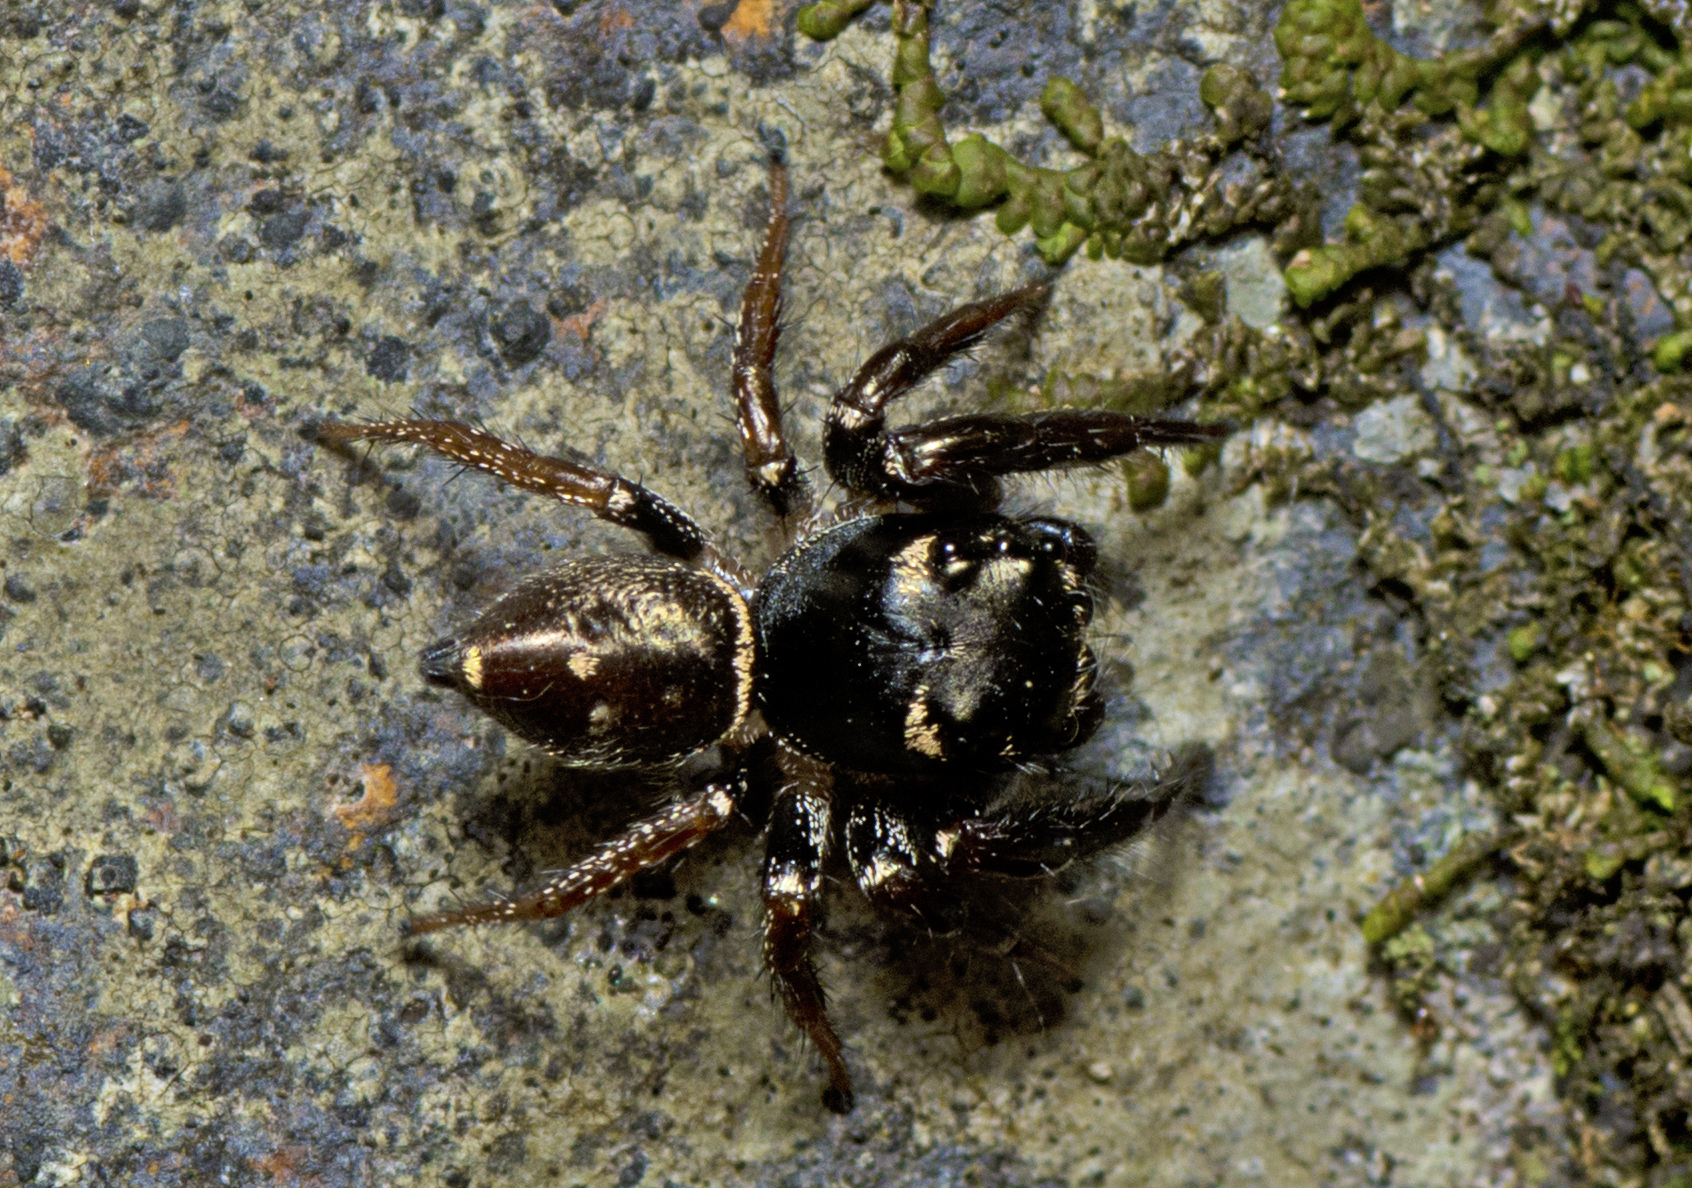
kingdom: Animalia
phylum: Arthropoda
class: Arachnida
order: Araneae
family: Salticidae
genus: Zenodorus
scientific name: Zenodorus orbiculatus
